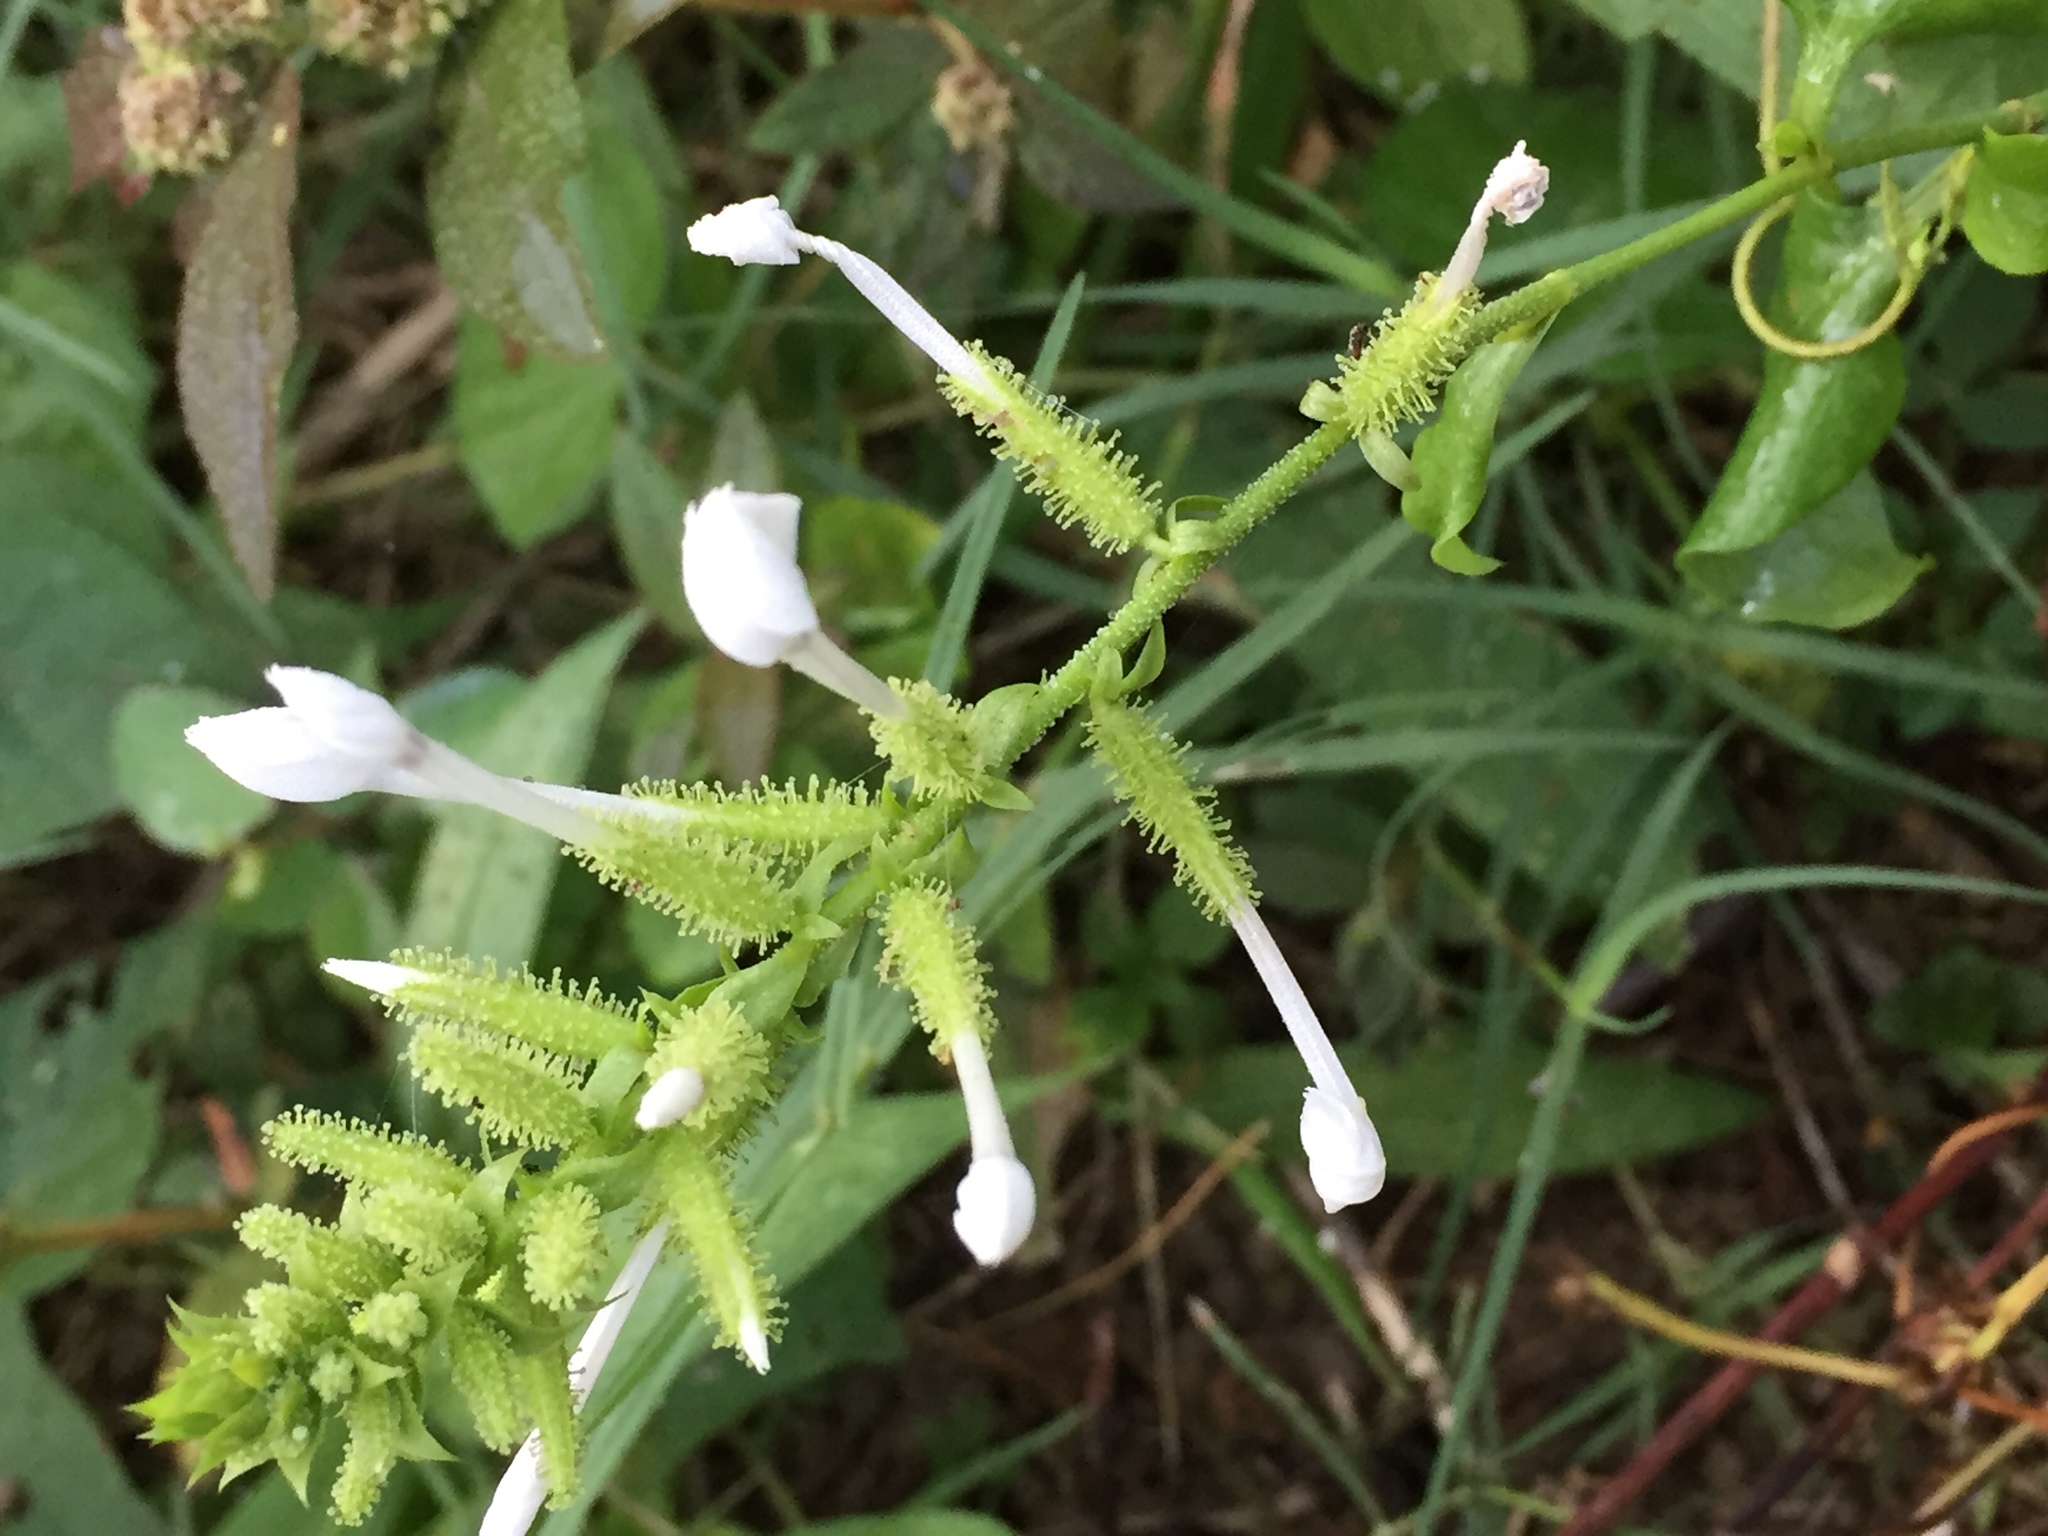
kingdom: Plantae
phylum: Tracheophyta
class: Magnoliopsida
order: Caryophyllales
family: Plumbaginaceae
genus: Plumbago
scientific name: Plumbago zeylanica
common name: Doctorbush
